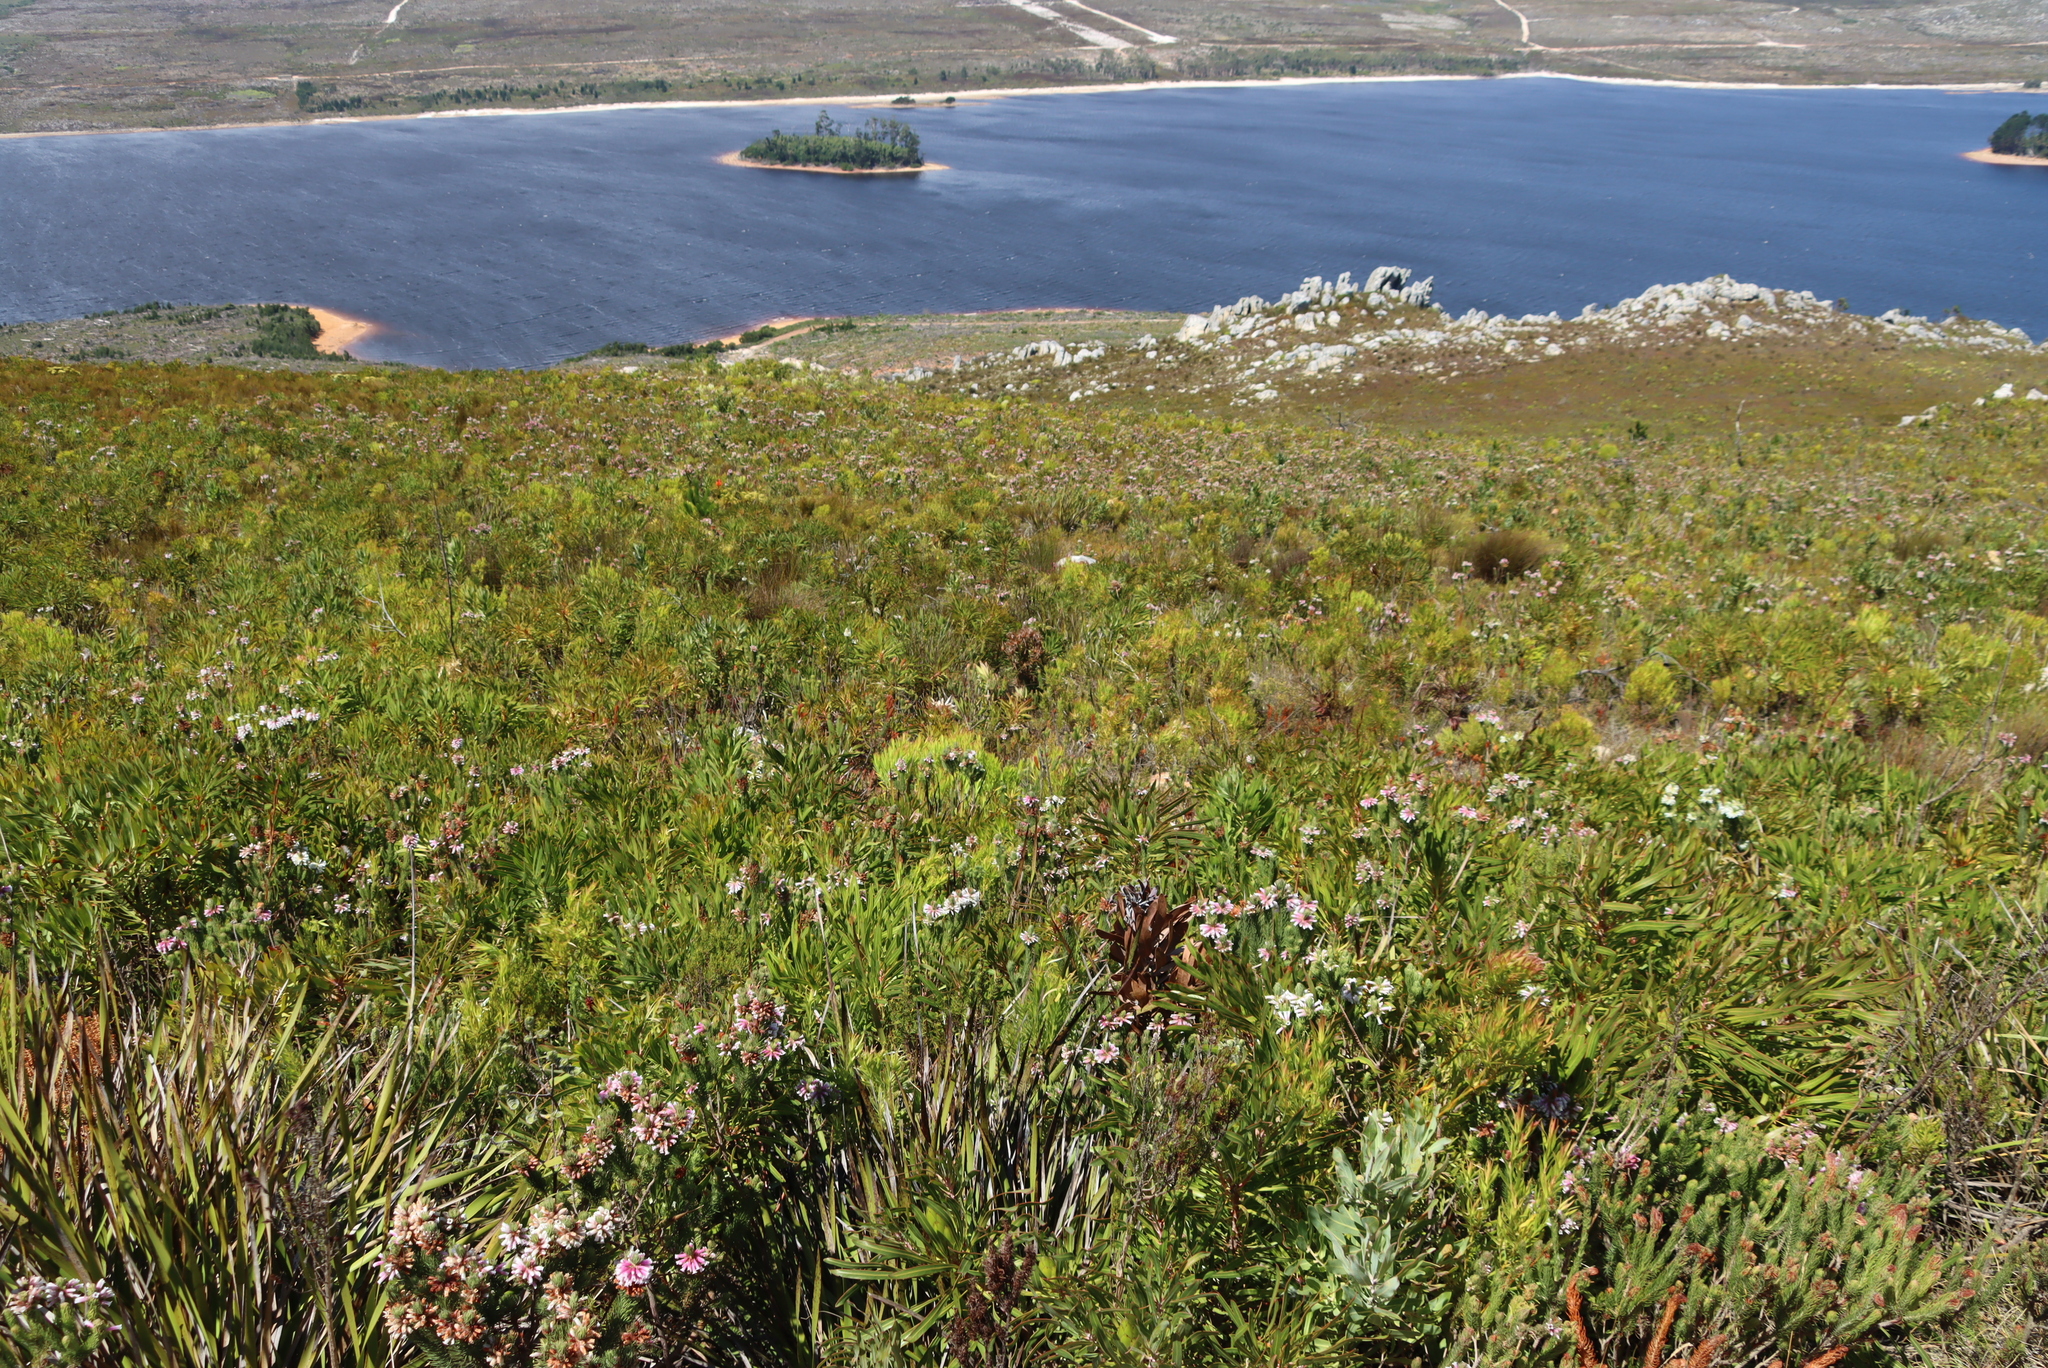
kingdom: Plantae
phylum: Tracheophyta
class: Magnoliopsida
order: Ericales
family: Ericaceae
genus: Erica
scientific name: Erica viscaria
